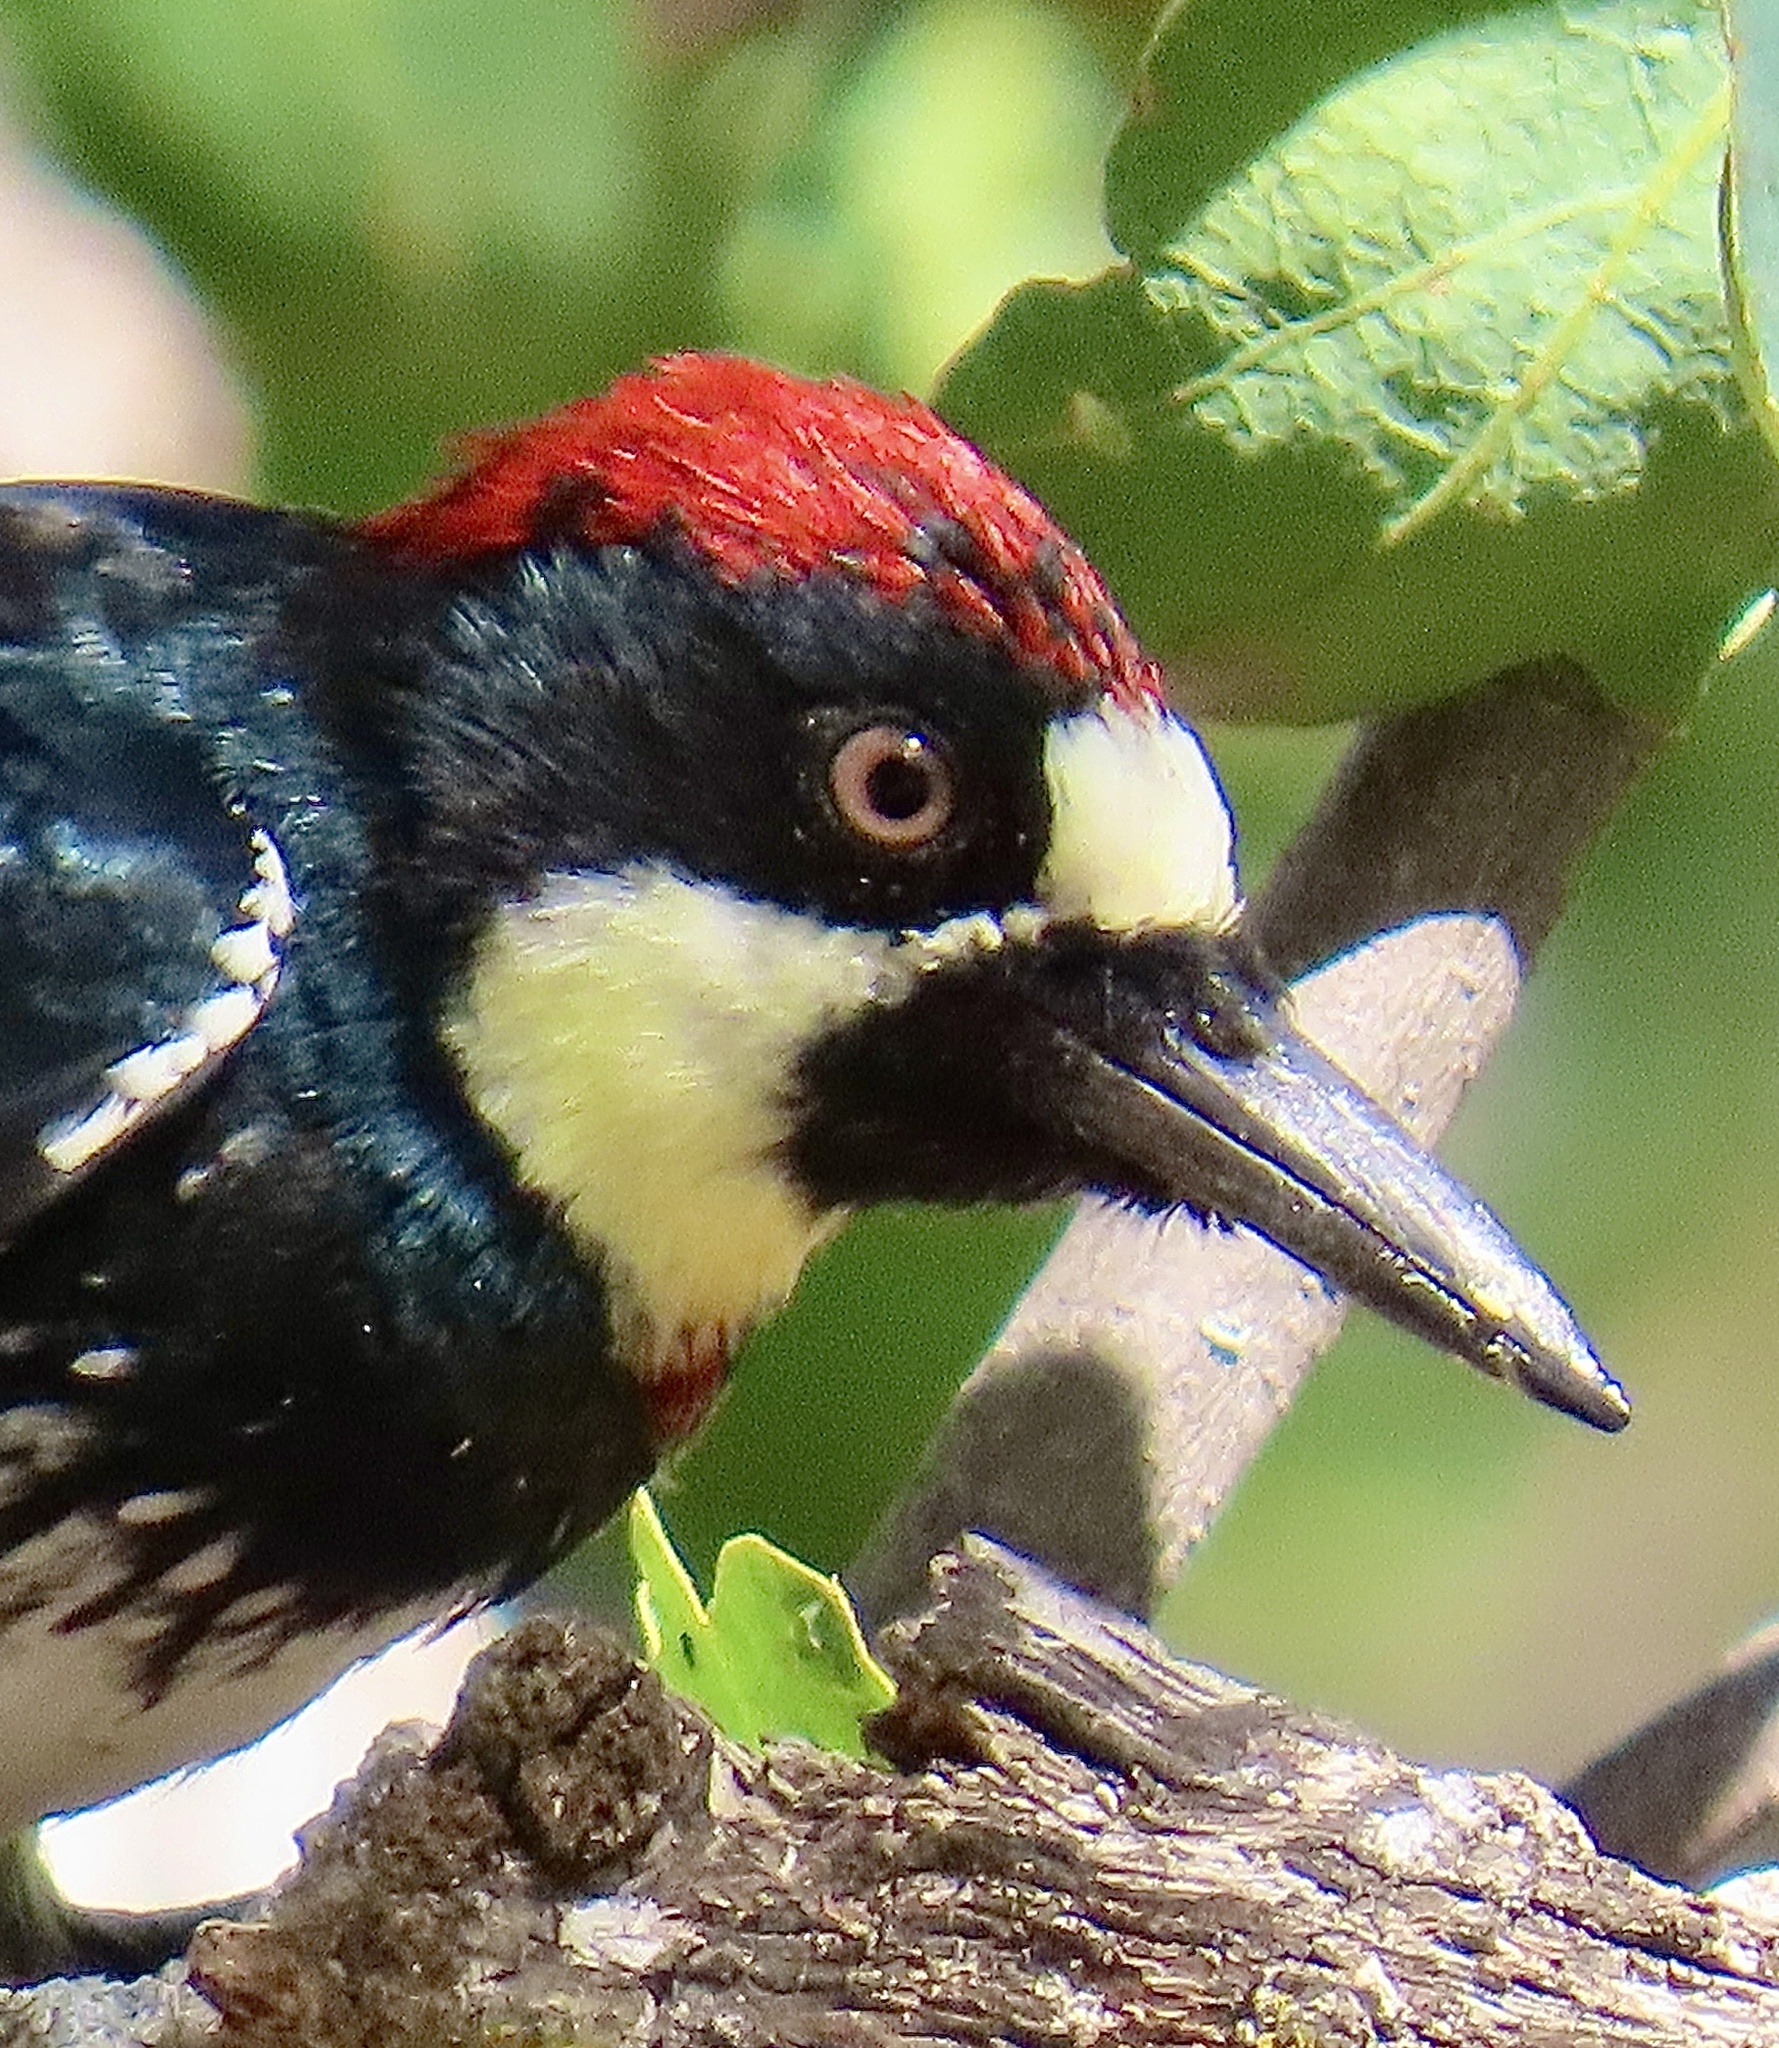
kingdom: Animalia
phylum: Chordata
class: Aves
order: Piciformes
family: Picidae
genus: Melanerpes
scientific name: Melanerpes formicivorus
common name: Acorn woodpecker
